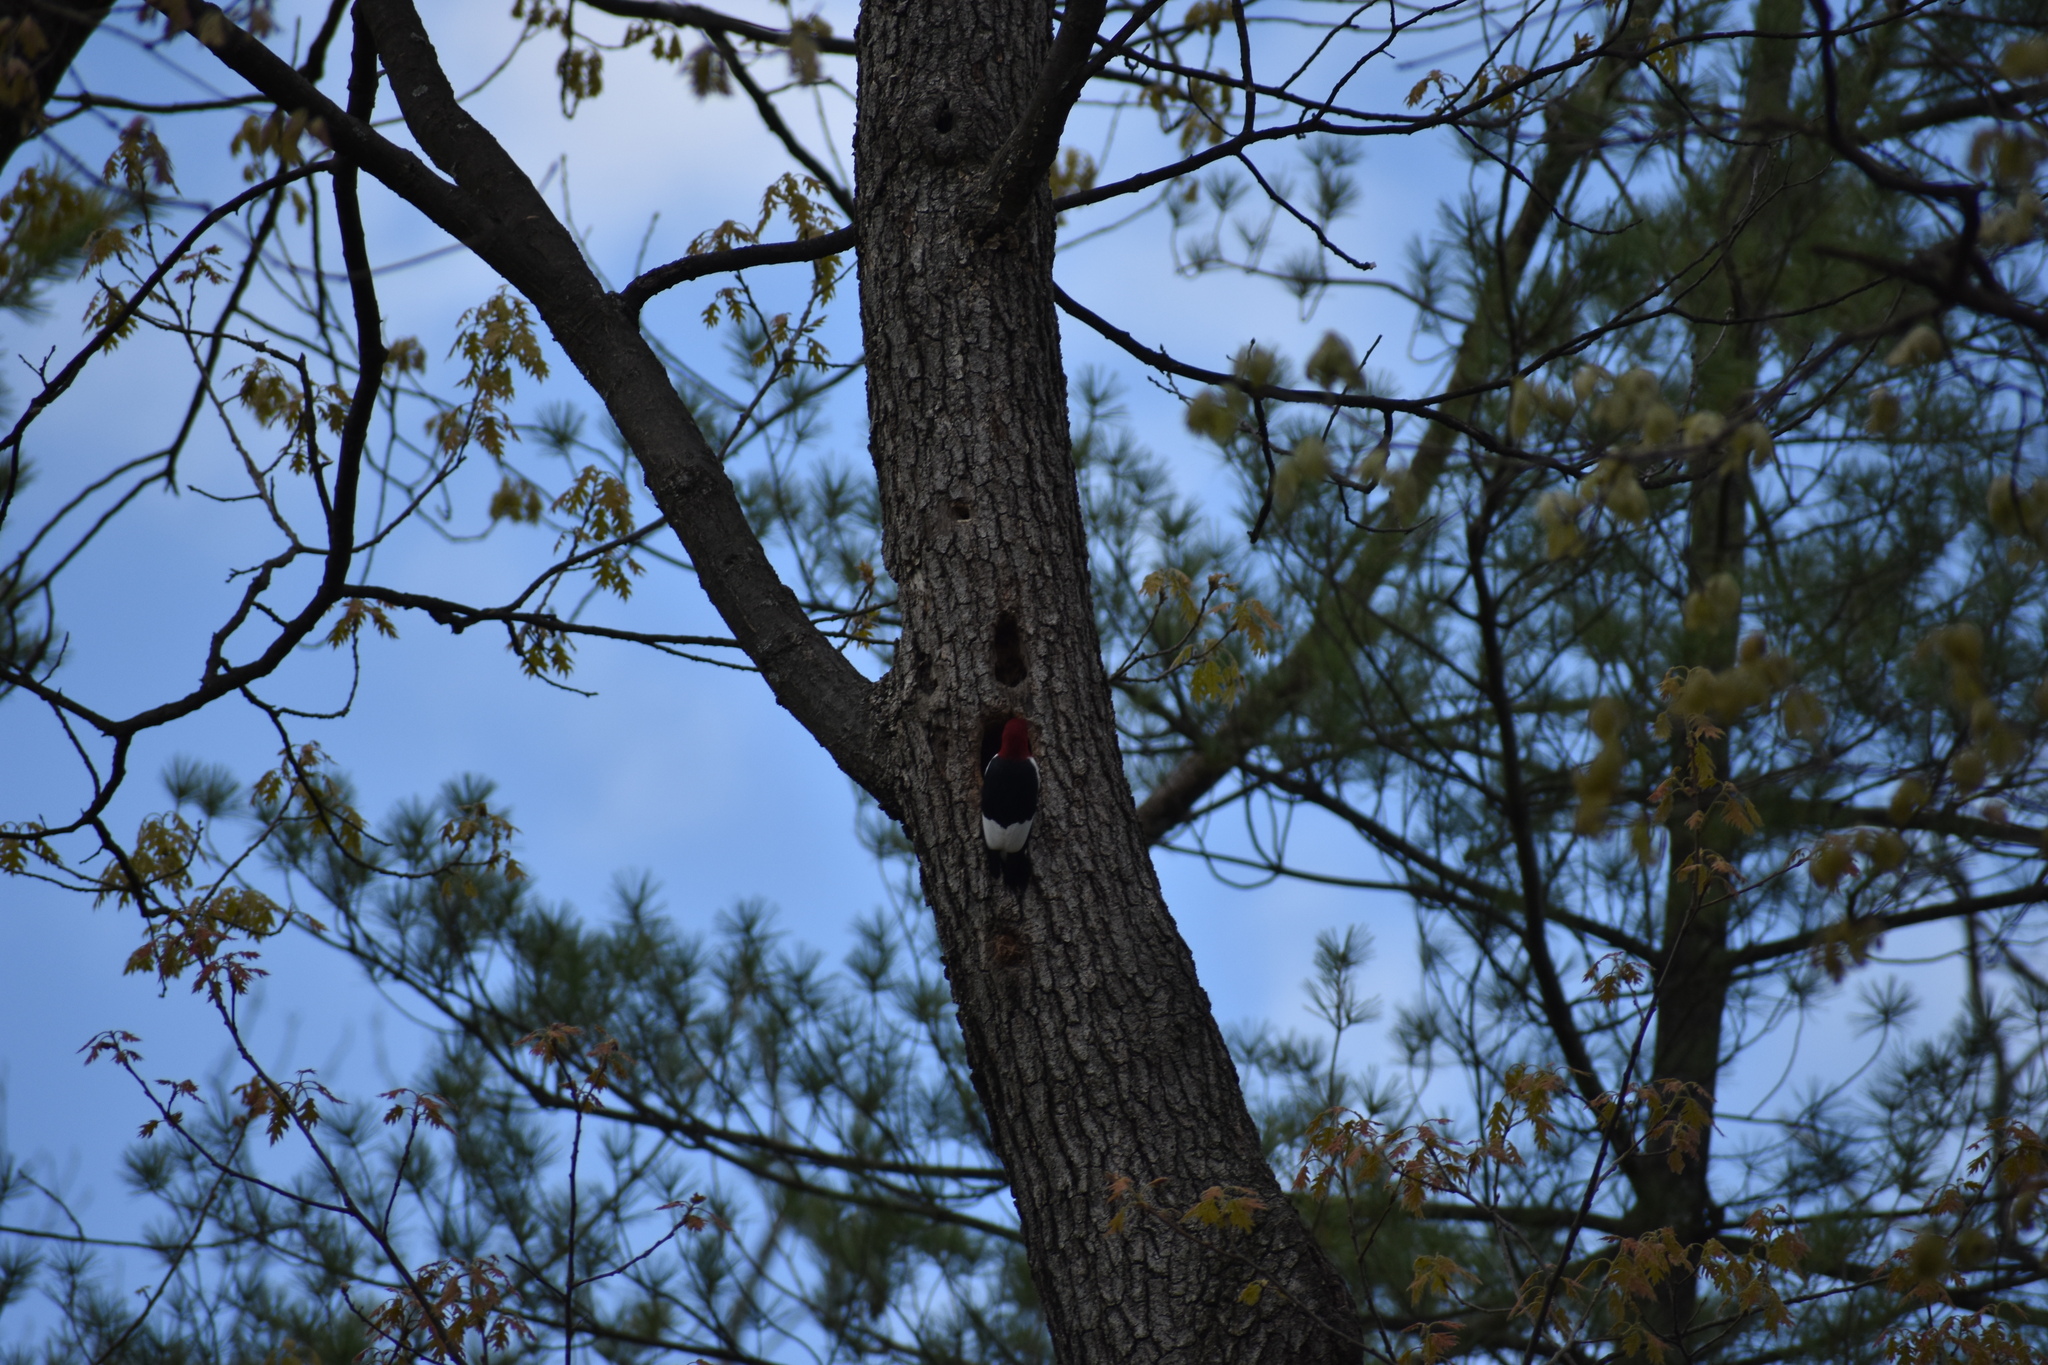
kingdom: Animalia
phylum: Chordata
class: Aves
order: Piciformes
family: Picidae
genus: Melanerpes
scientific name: Melanerpes erythrocephalus
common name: Red-headed woodpecker
